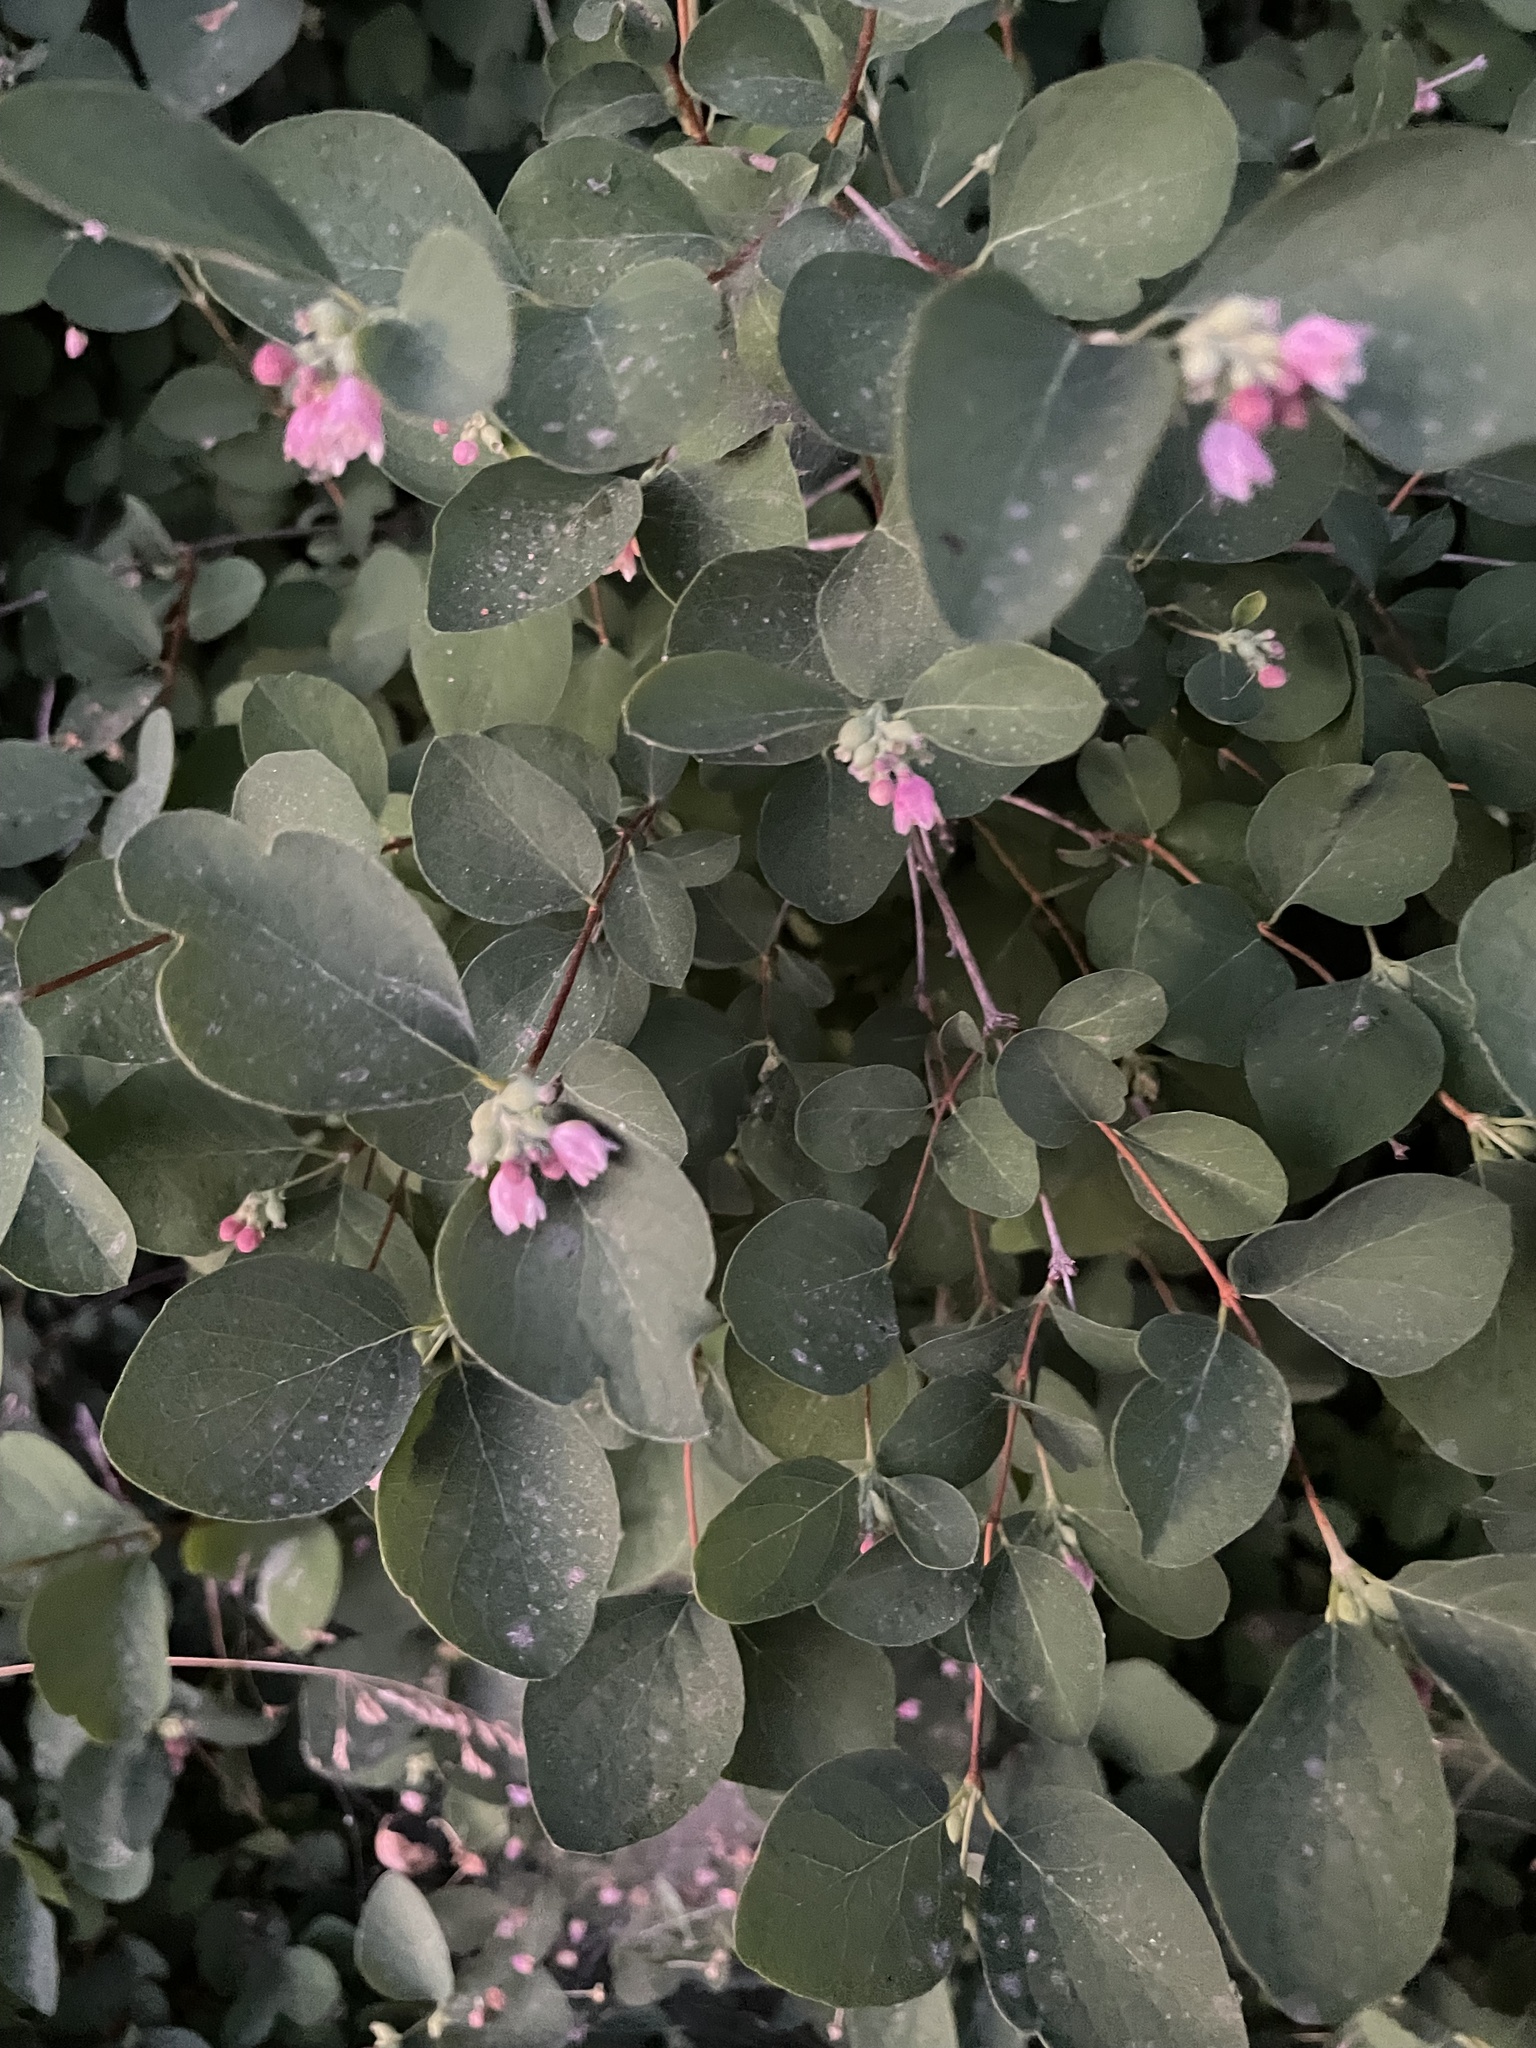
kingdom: Plantae
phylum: Tracheophyta
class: Magnoliopsida
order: Dipsacales
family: Caprifoliaceae
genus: Symphoricarpos
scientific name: Symphoricarpos albus
